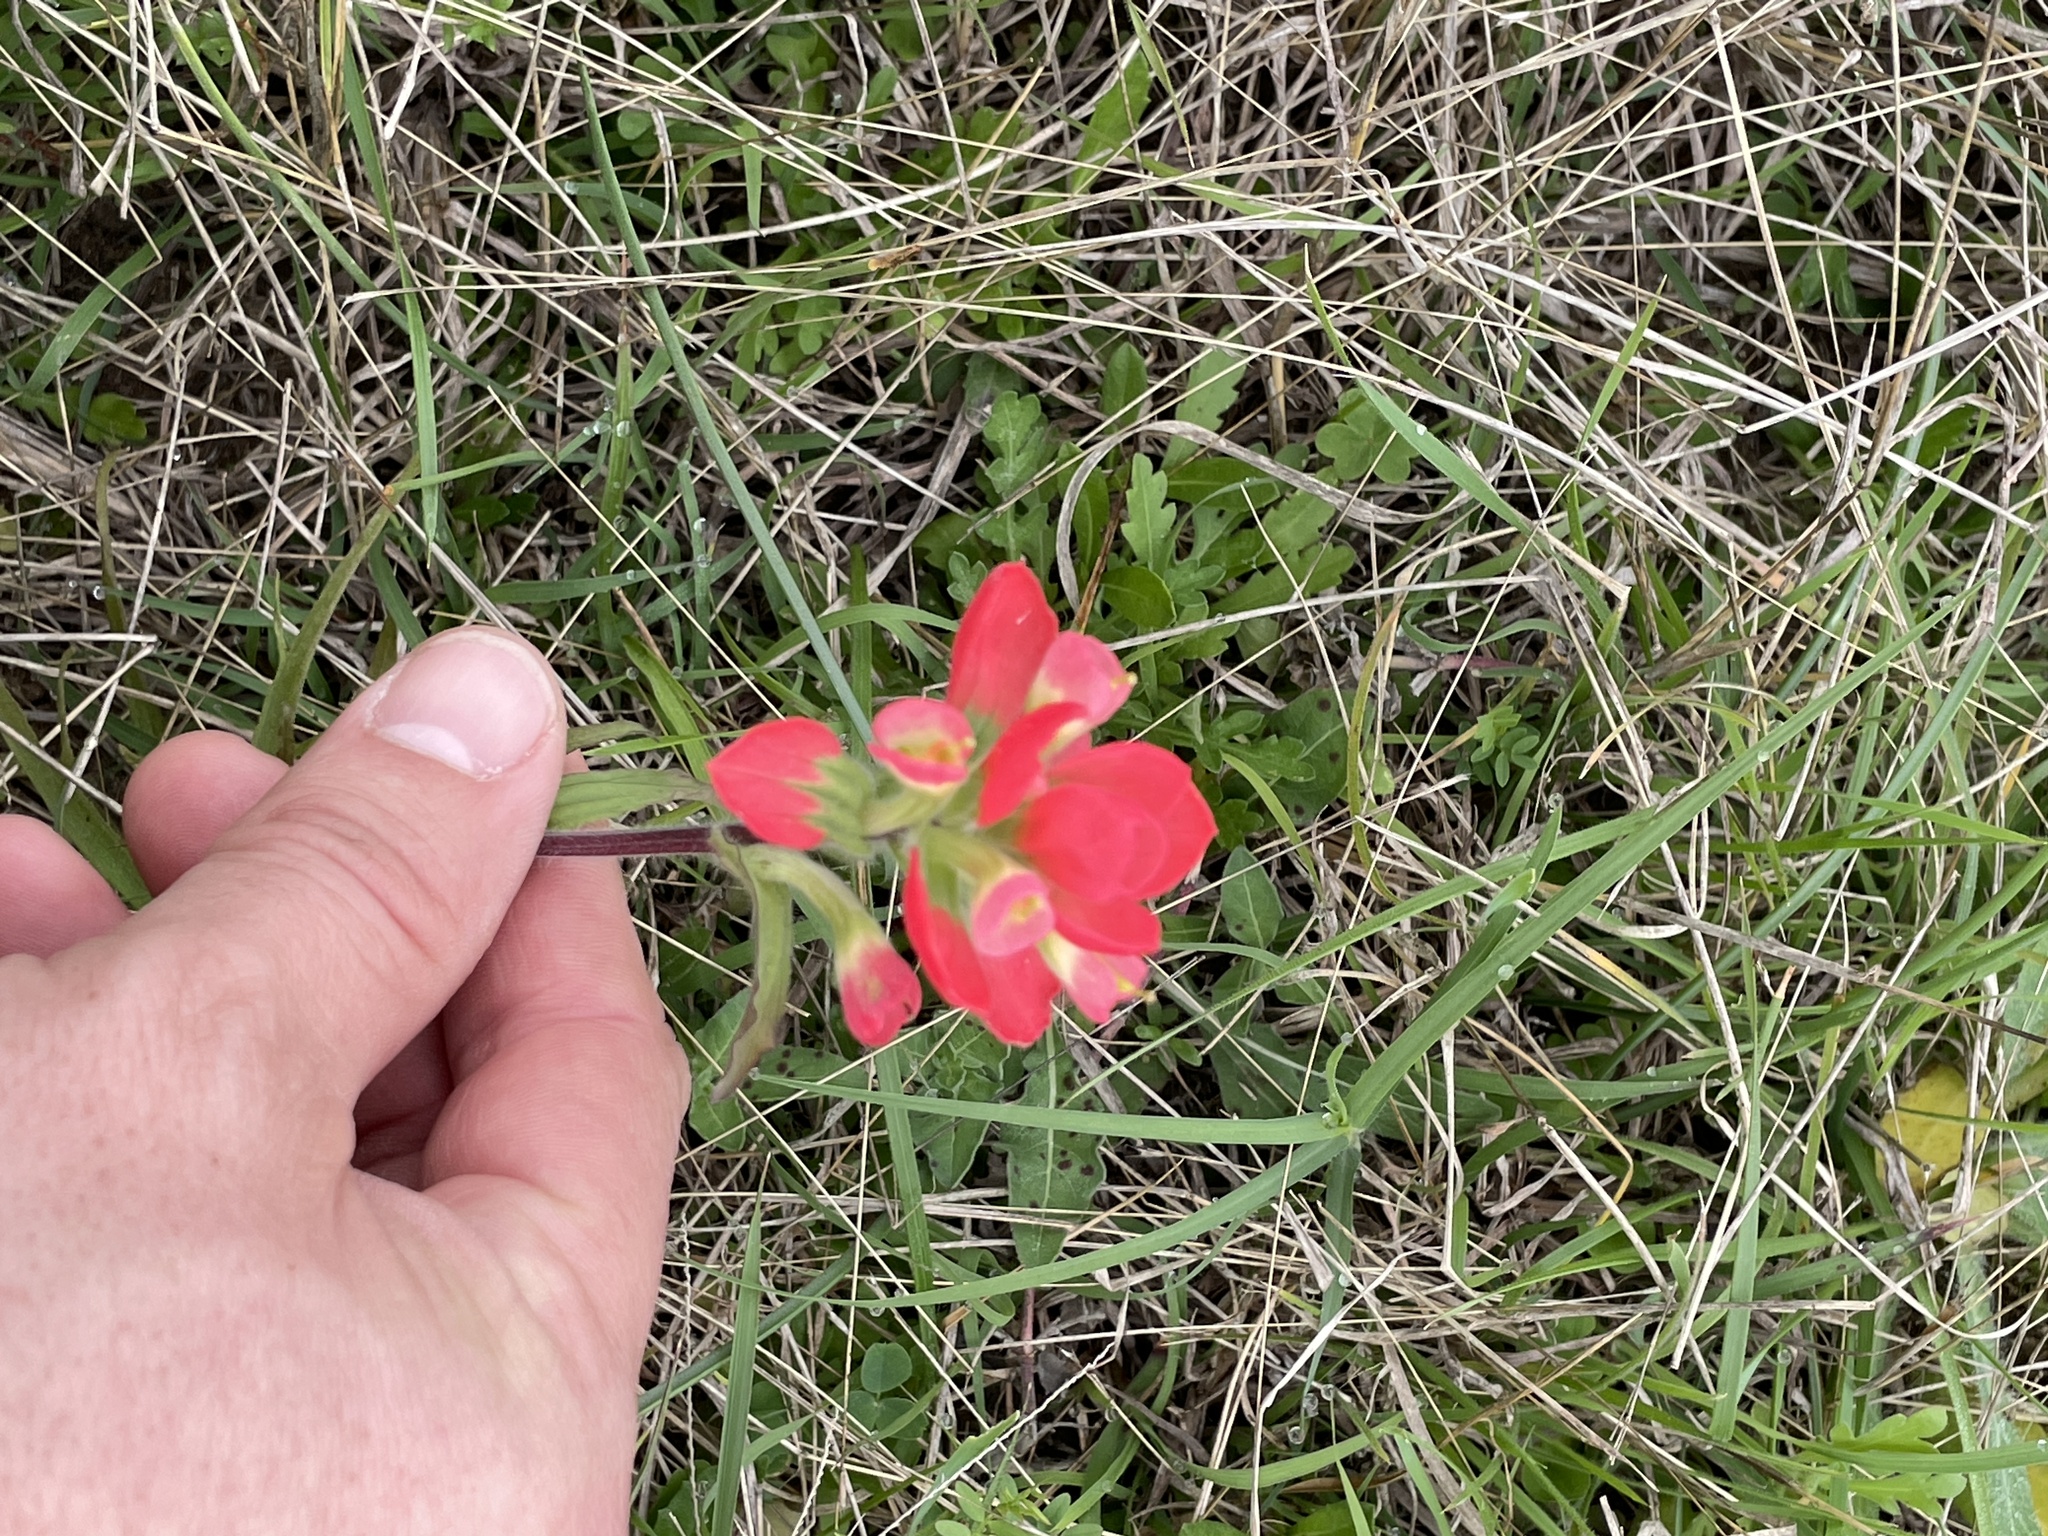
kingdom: Plantae
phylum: Tracheophyta
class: Magnoliopsida
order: Lamiales
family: Orobanchaceae
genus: Castilleja
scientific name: Castilleja indivisa
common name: Texas paintbrush
